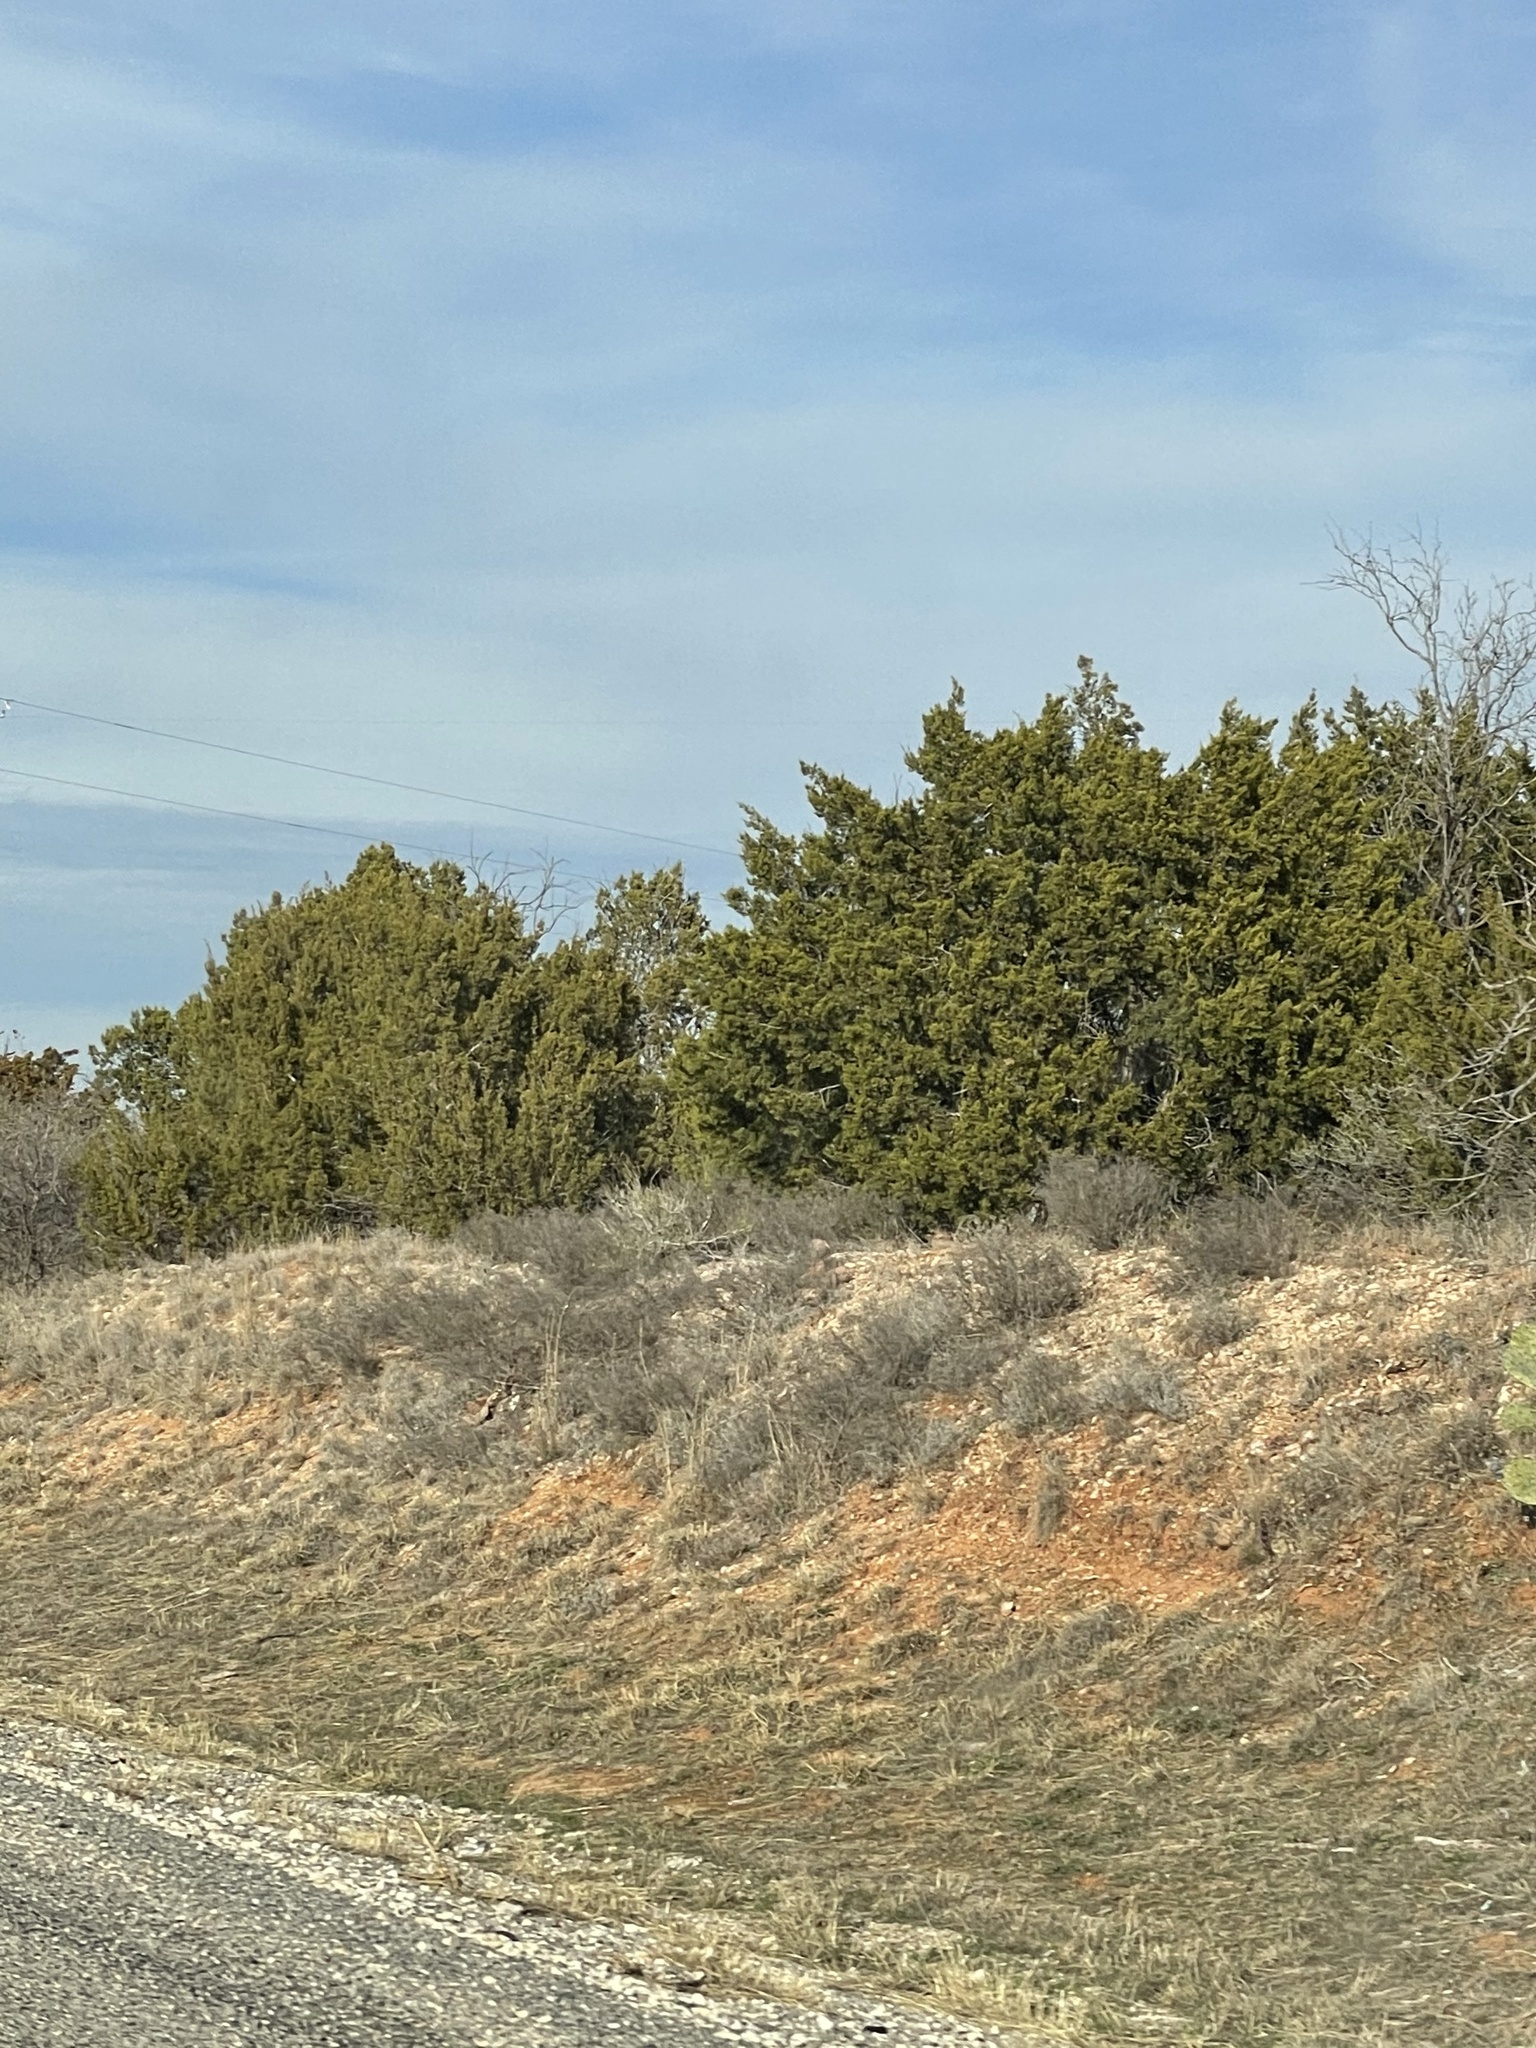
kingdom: Plantae
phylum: Tracheophyta
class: Pinopsida
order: Pinales
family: Cupressaceae
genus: Juniperus
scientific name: Juniperus ashei
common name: Mexican juniper
